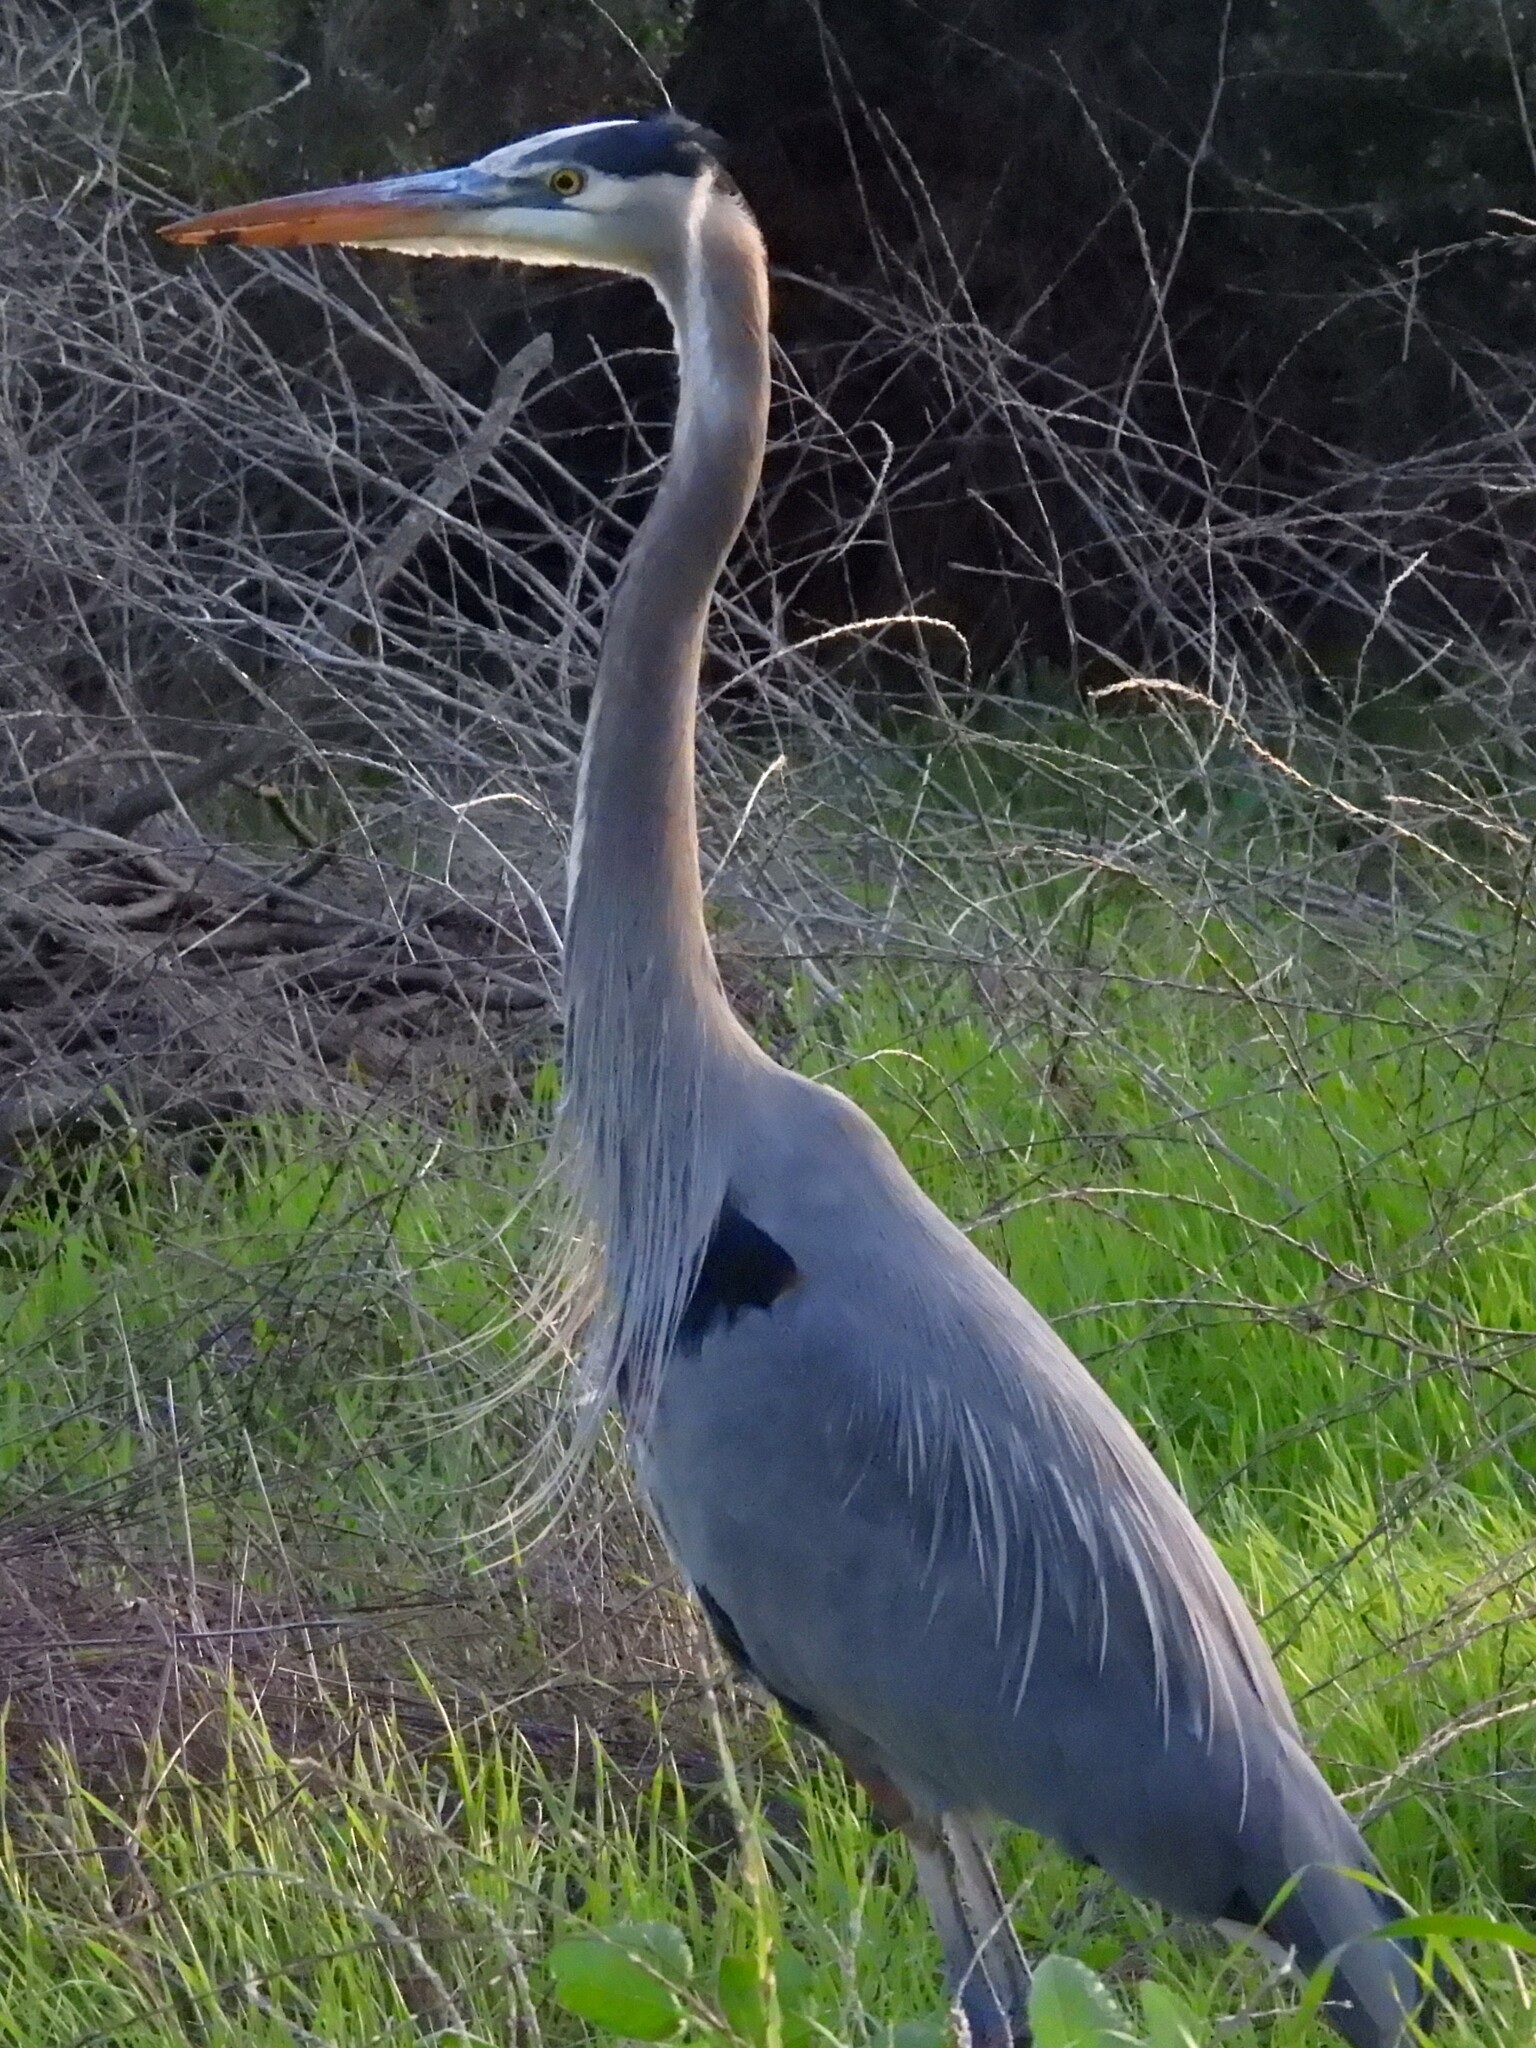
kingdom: Animalia
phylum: Chordata
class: Aves
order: Pelecaniformes
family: Ardeidae
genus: Ardea
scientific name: Ardea herodias
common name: Great blue heron
